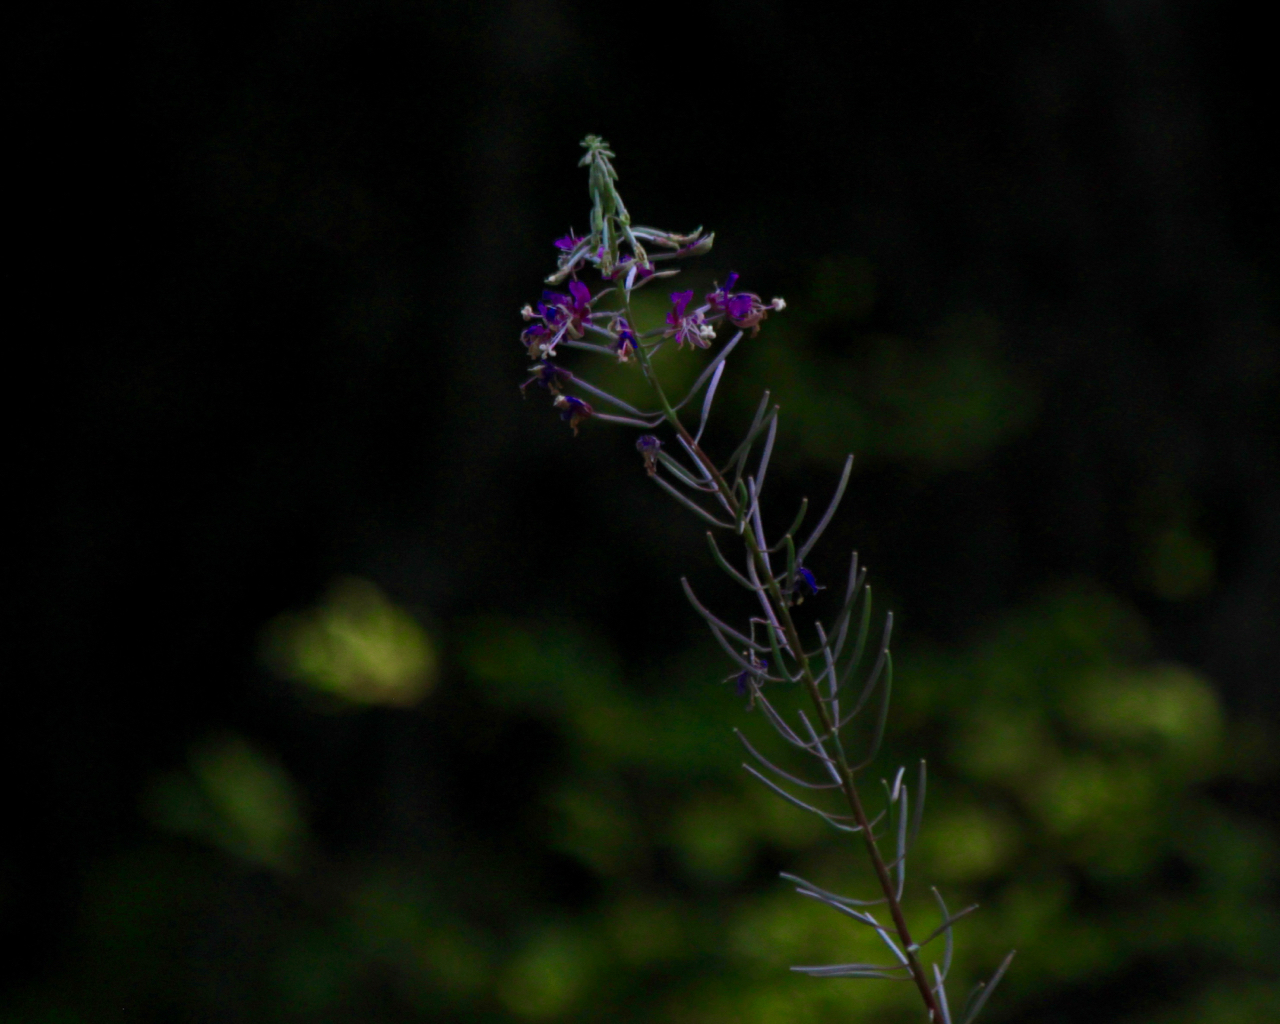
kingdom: Plantae
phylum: Tracheophyta
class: Magnoliopsida
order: Myrtales
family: Onagraceae
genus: Chamaenerion
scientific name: Chamaenerion angustifolium
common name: Fireweed
